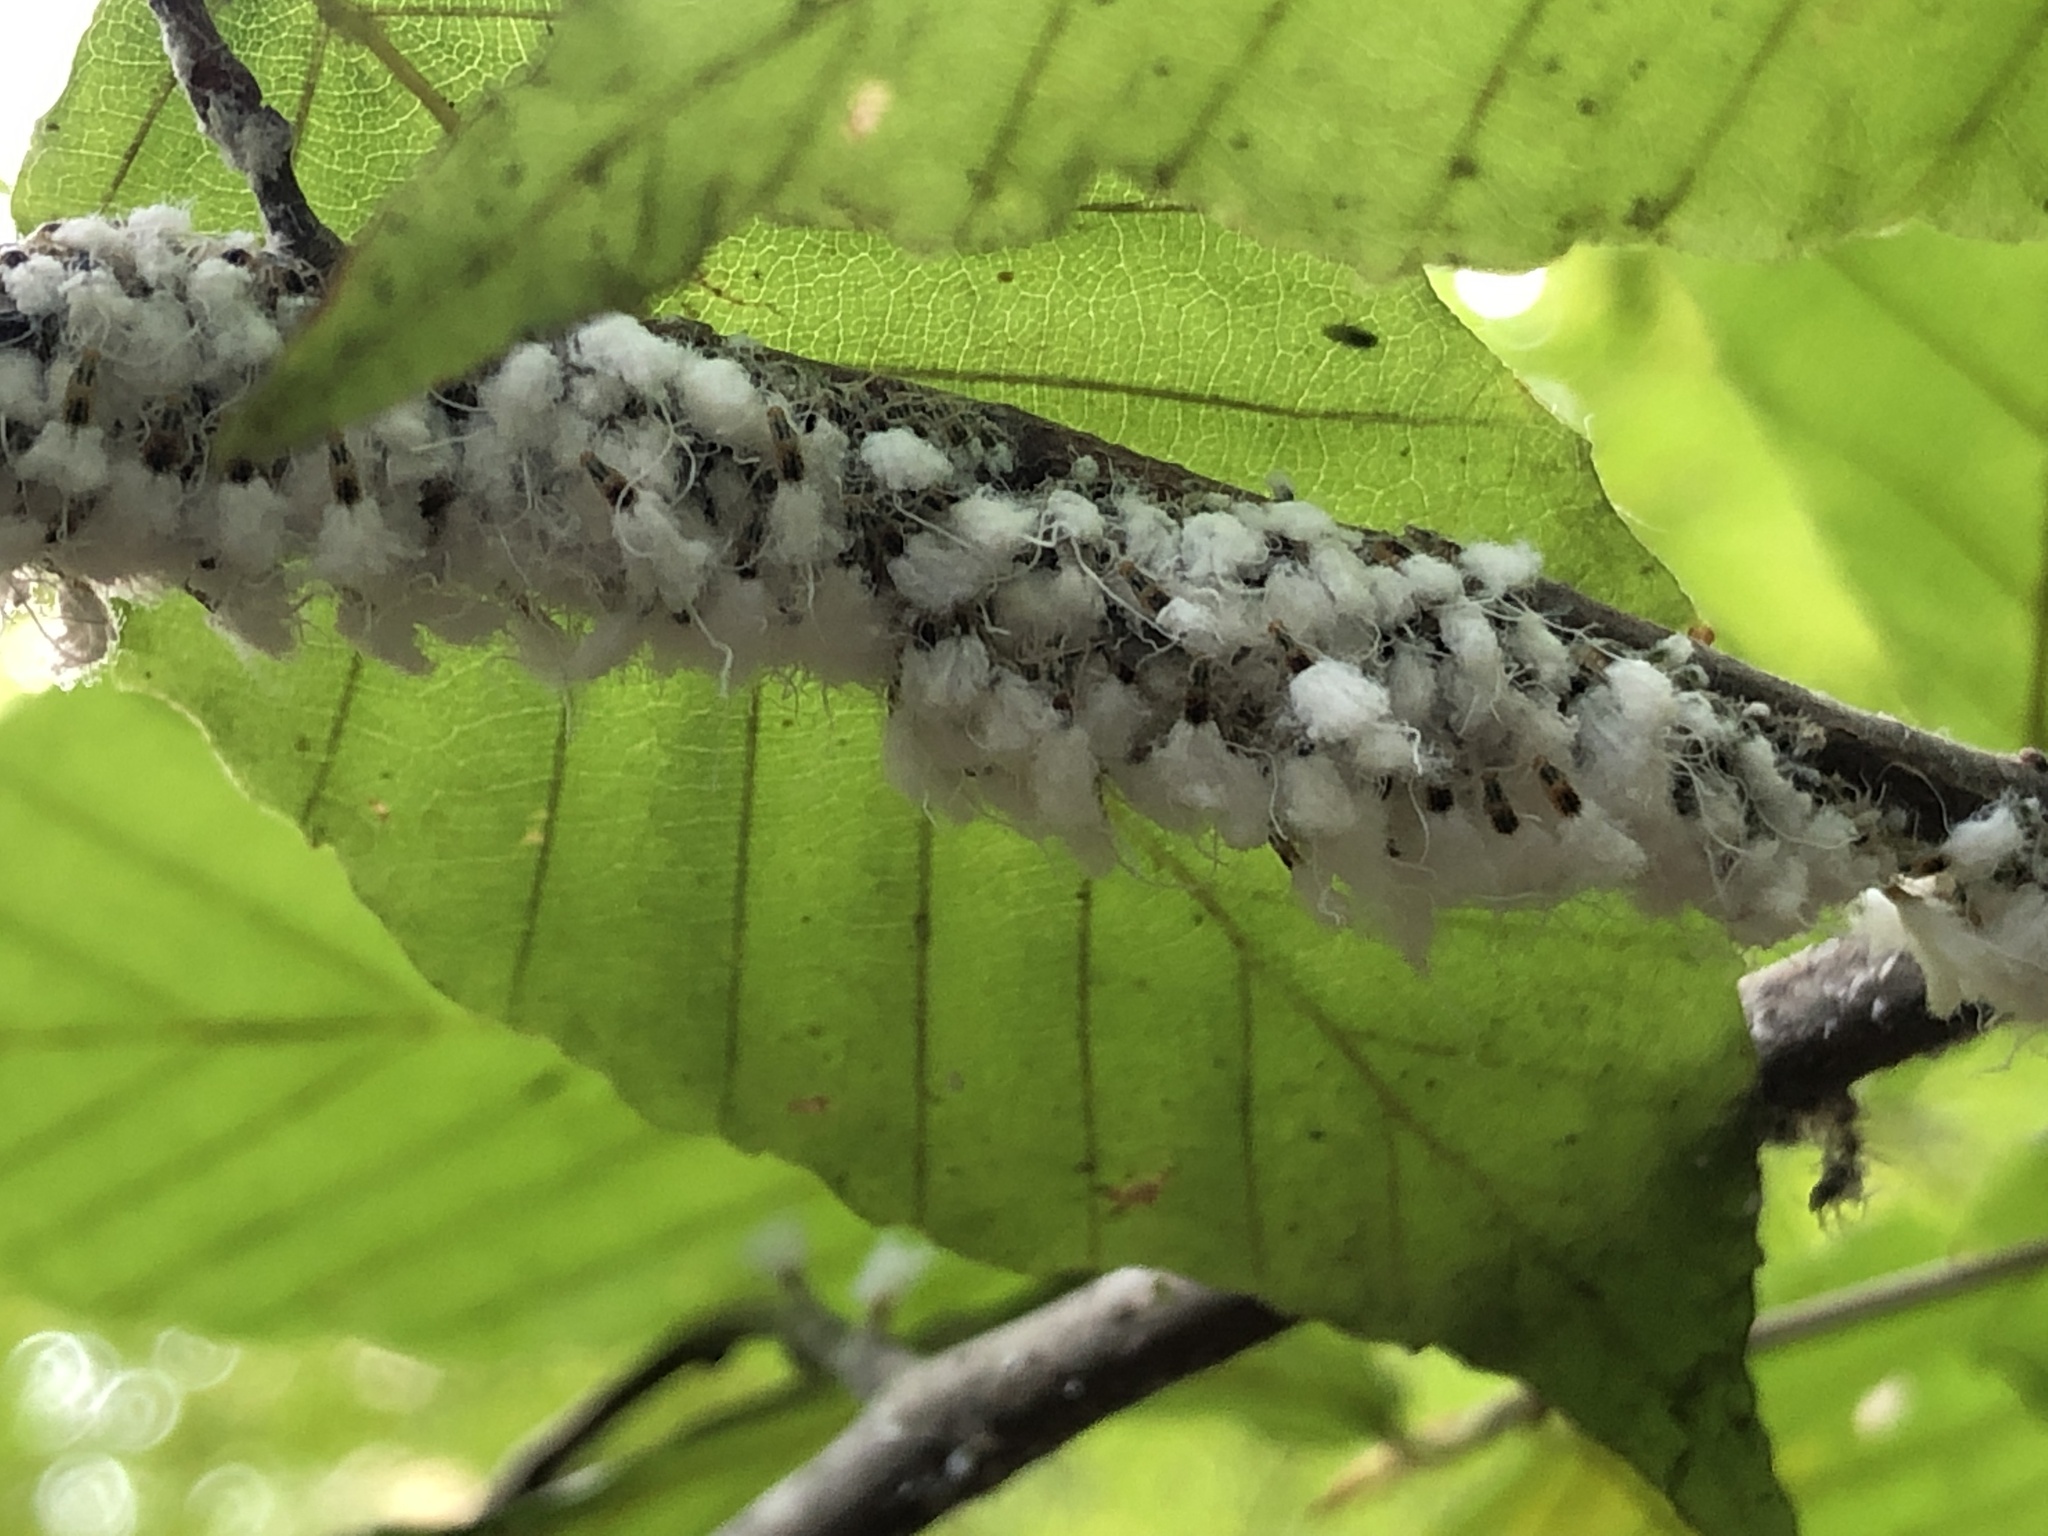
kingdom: Animalia
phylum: Arthropoda
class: Insecta
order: Hemiptera
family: Aphididae
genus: Grylloprociphilus
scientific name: Grylloprociphilus imbricator
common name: Beech blight aphid
